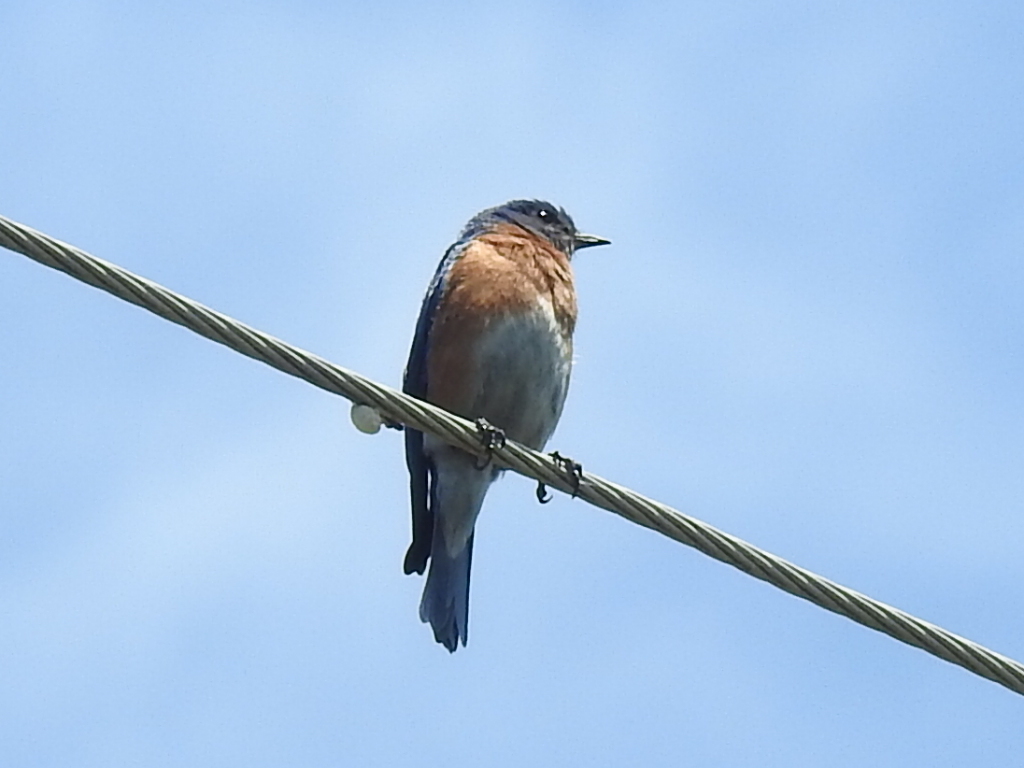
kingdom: Animalia
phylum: Chordata
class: Aves
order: Passeriformes
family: Turdidae
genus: Sialia
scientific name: Sialia sialis
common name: Eastern bluebird
